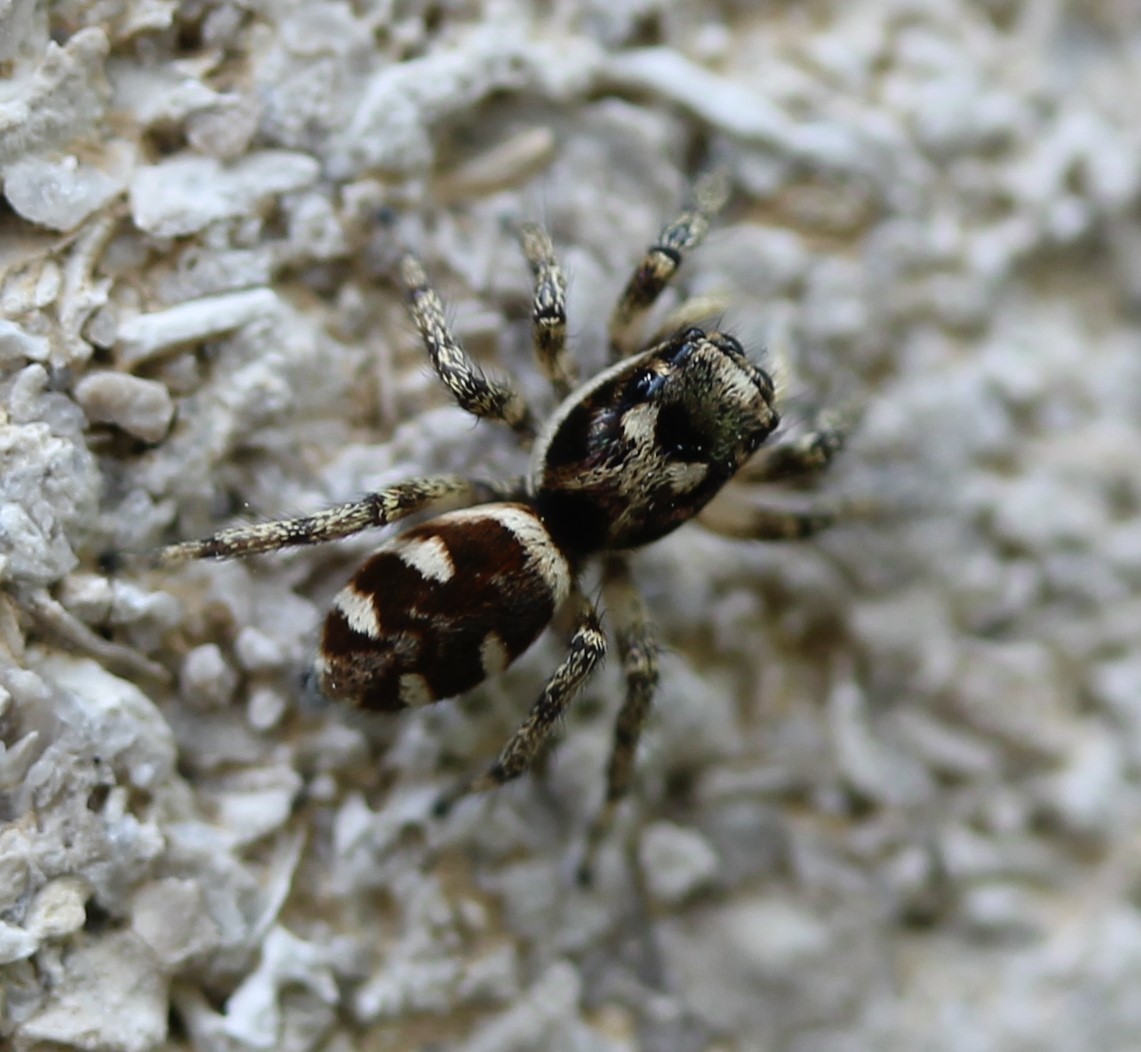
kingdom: Animalia
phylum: Arthropoda
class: Arachnida
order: Araneae
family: Salticidae
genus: Salticus
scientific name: Salticus scenicus
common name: Zebra jumper
